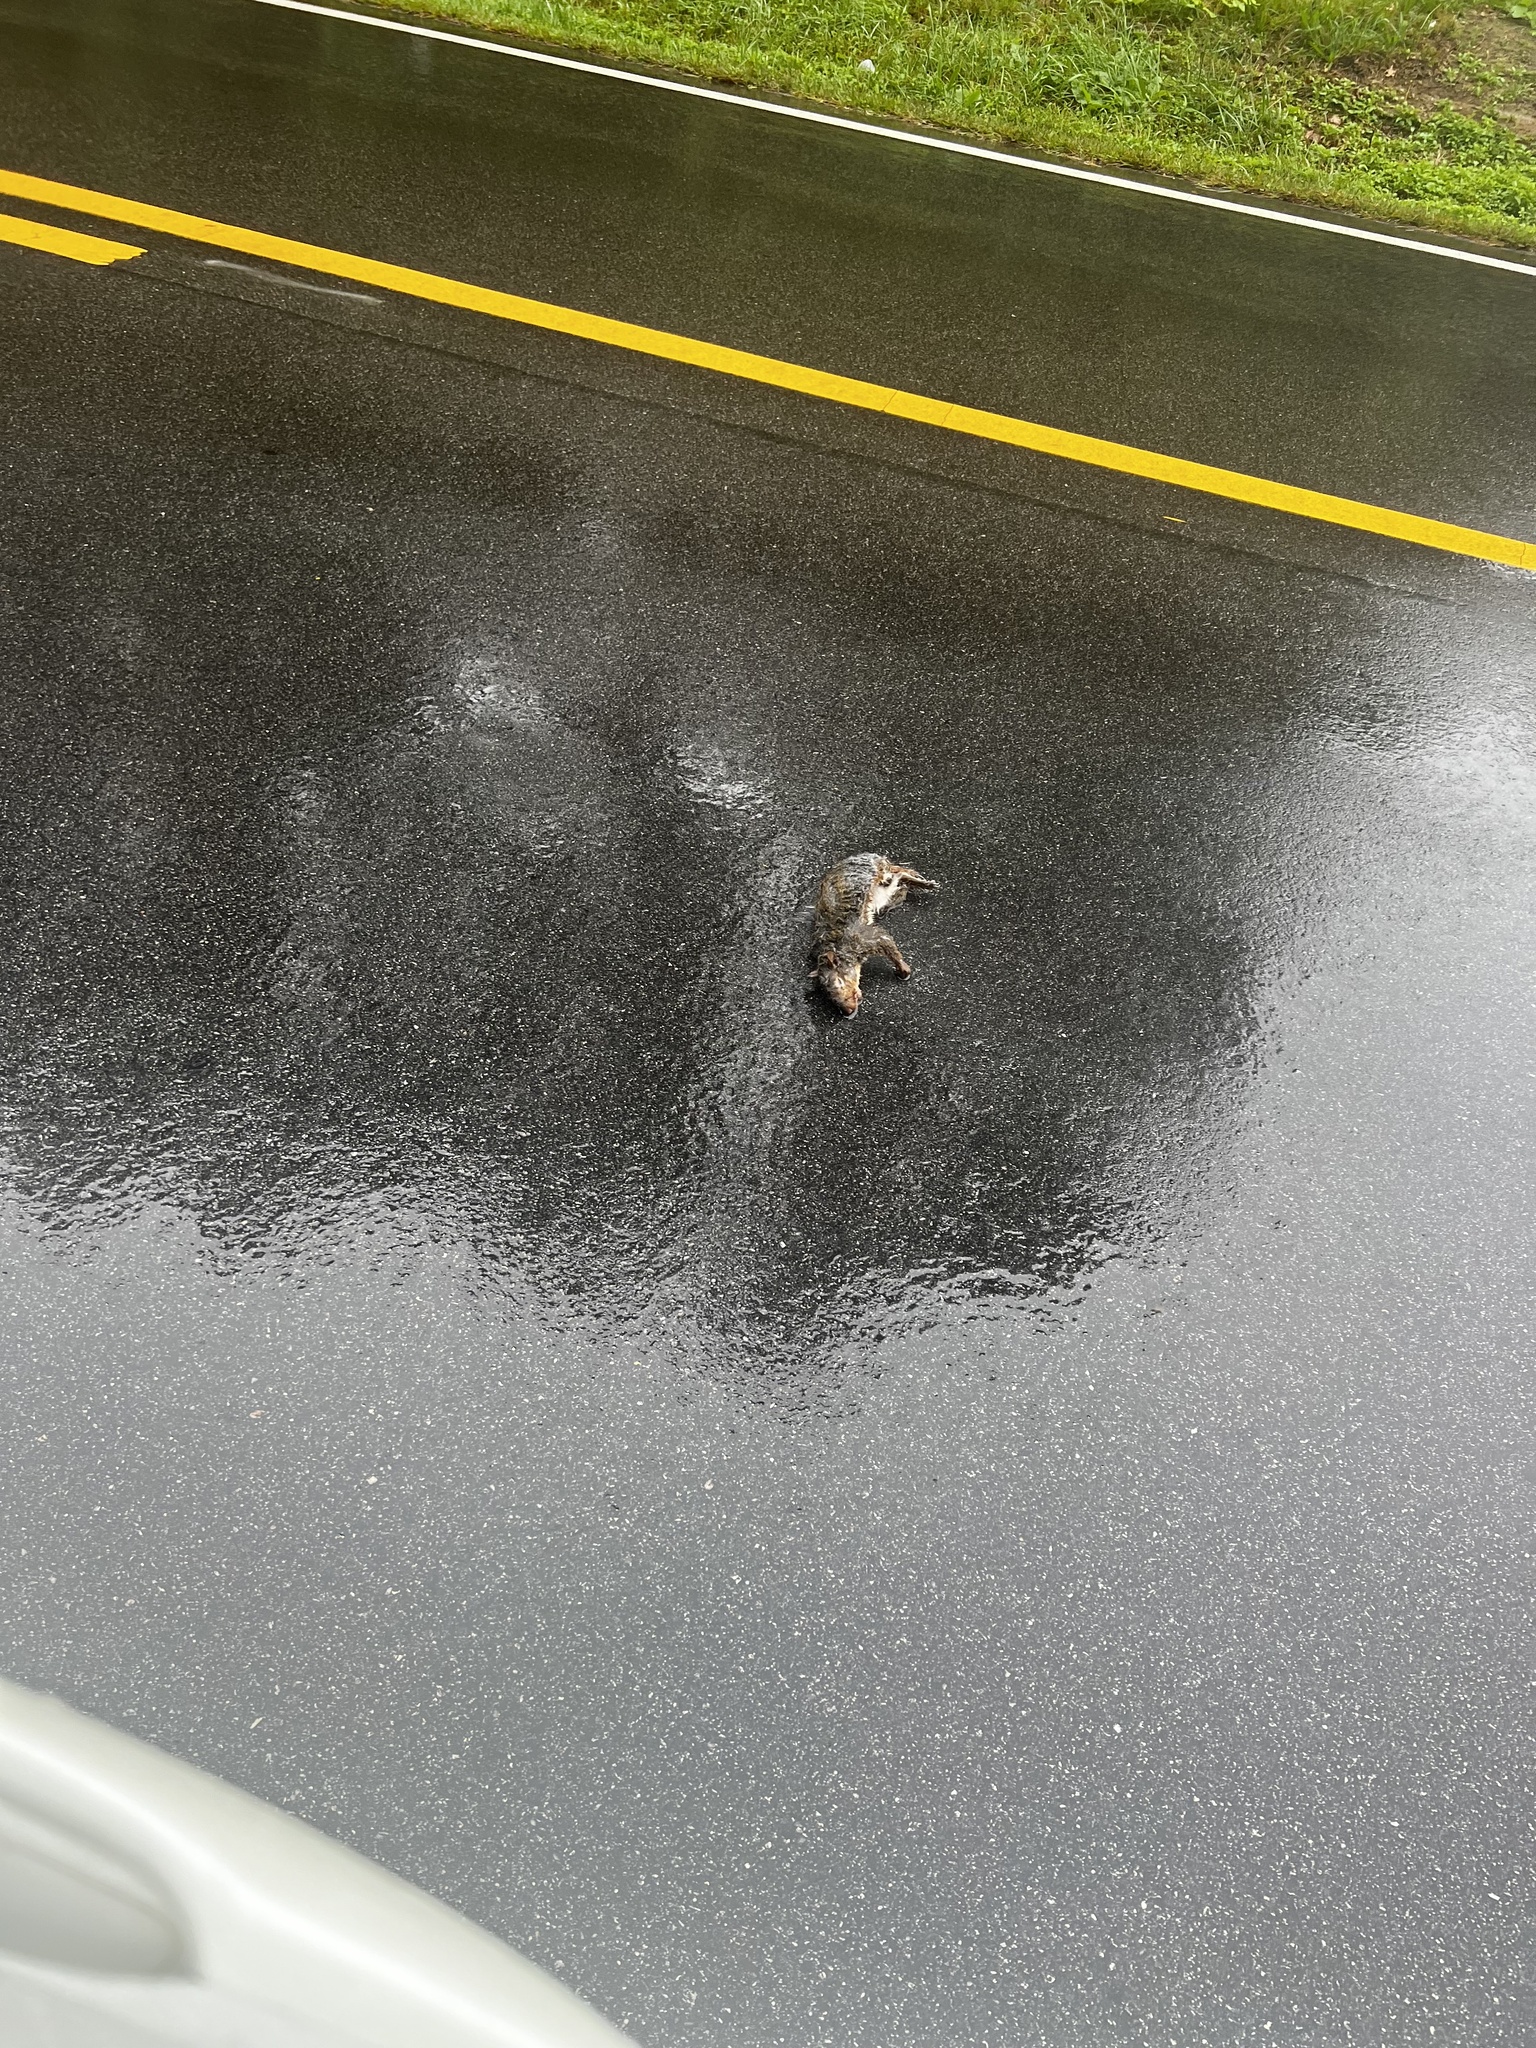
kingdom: Animalia
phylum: Chordata
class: Mammalia
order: Rodentia
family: Sciuridae
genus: Sciurus
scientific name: Sciurus carolinensis
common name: Eastern gray squirrel
